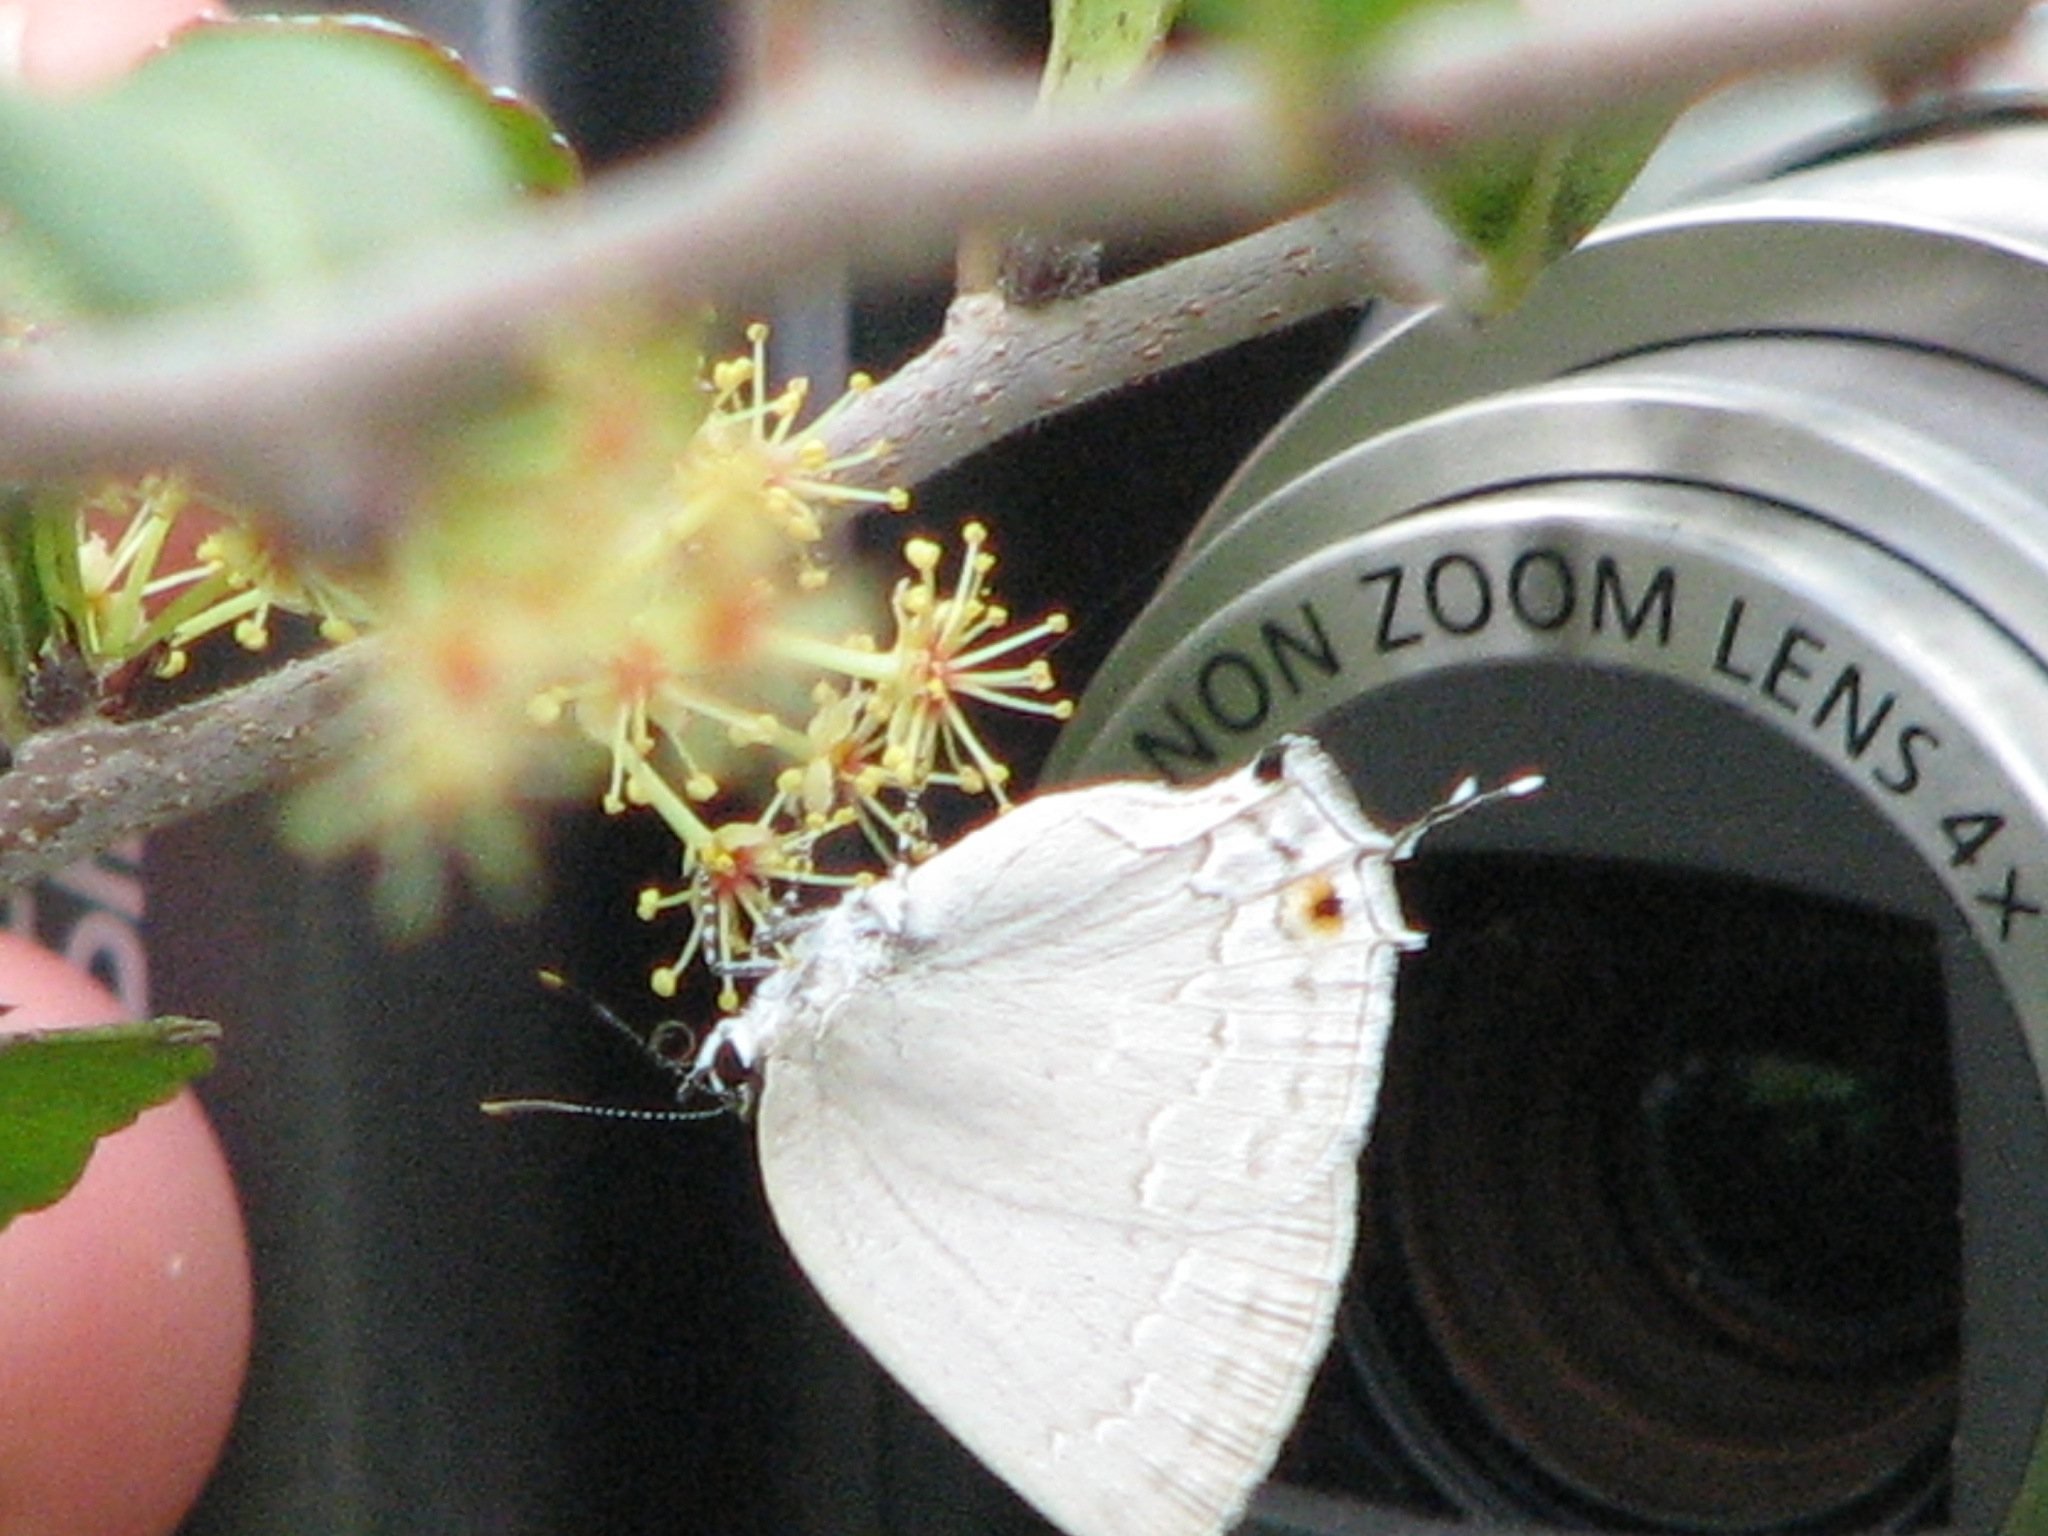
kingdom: Animalia
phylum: Arthropoda
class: Insecta
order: Lepidoptera
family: Lycaenidae
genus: Strephonota
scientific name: Strephonota tephraeus
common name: Pearly-gray hairstreak
